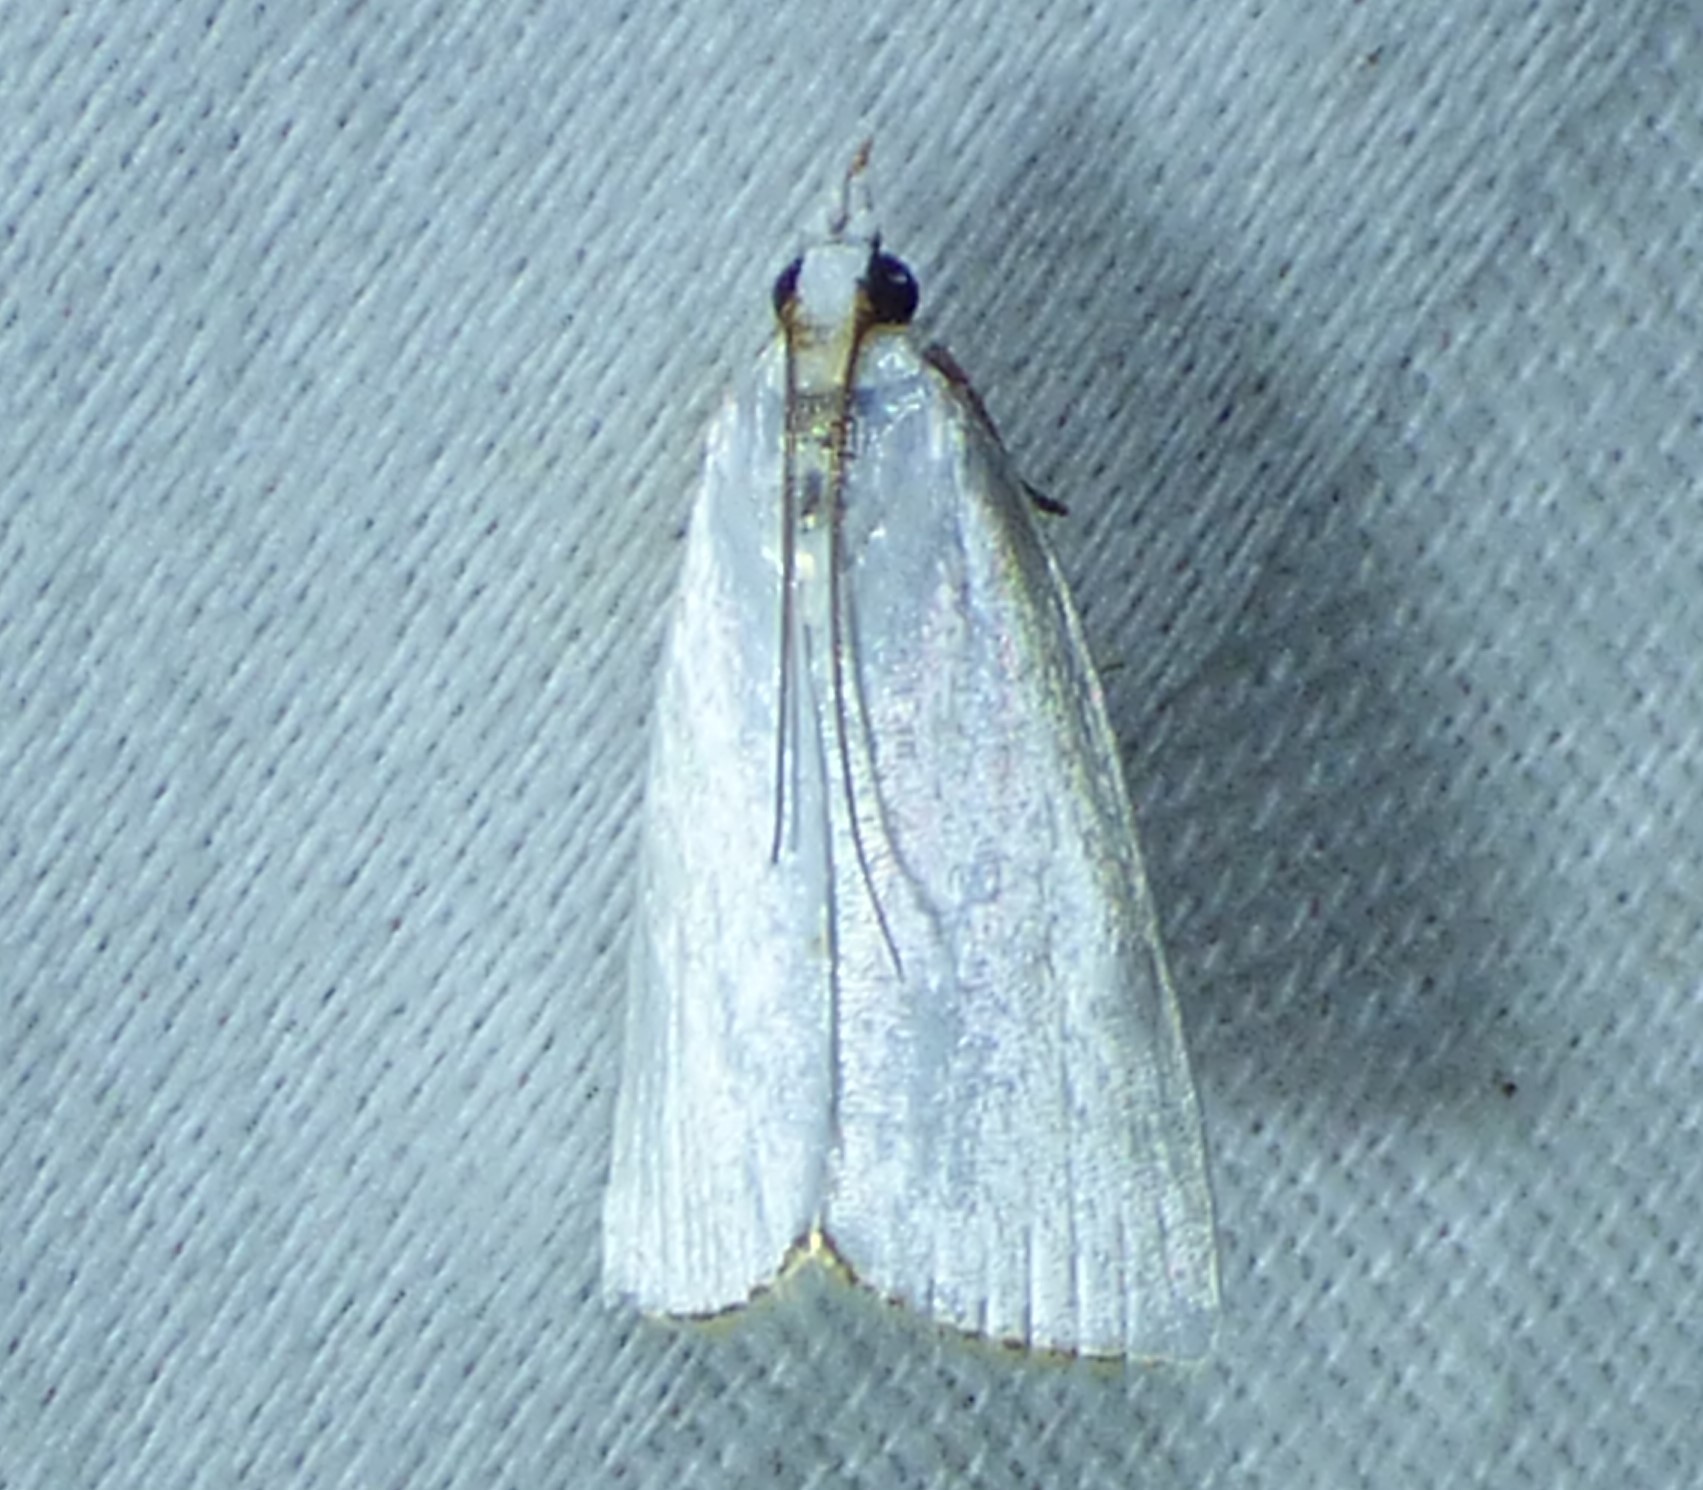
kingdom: Animalia
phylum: Arthropoda
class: Insecta
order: Lepidoptera
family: Crambidae
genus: Argyria
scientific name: Argyria nivalis
